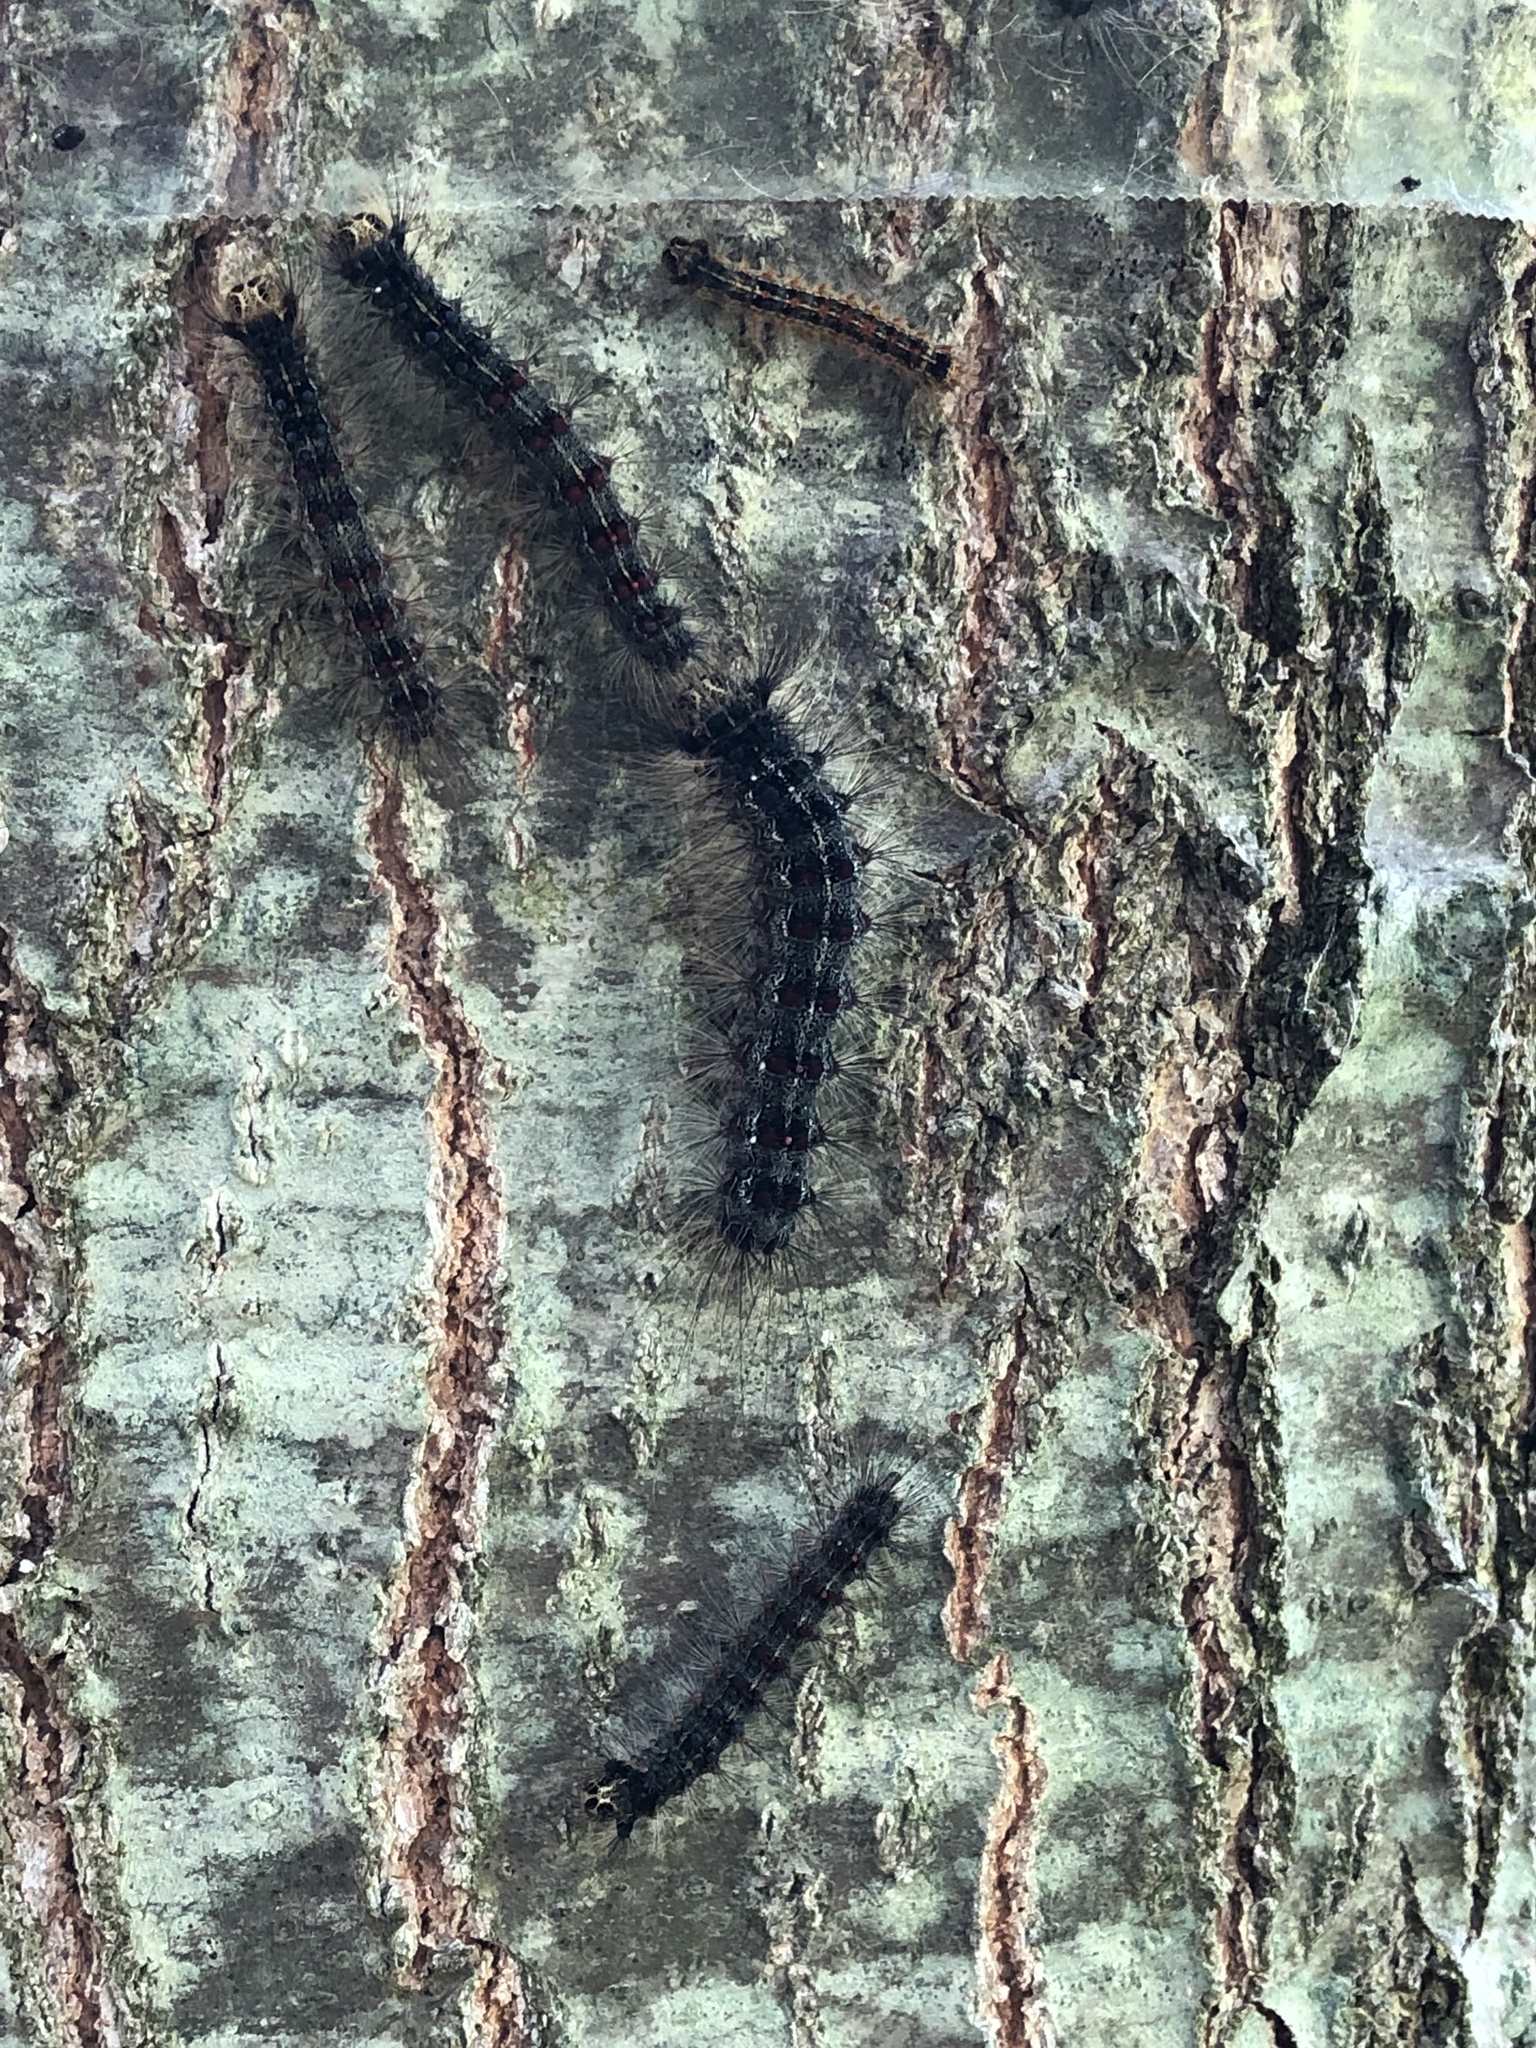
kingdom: Animalia
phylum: Arthropoda
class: Insecta
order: Lepidoptera
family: Erebidae
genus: Lymantria
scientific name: Lymantria dispar
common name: Gypsy moth
